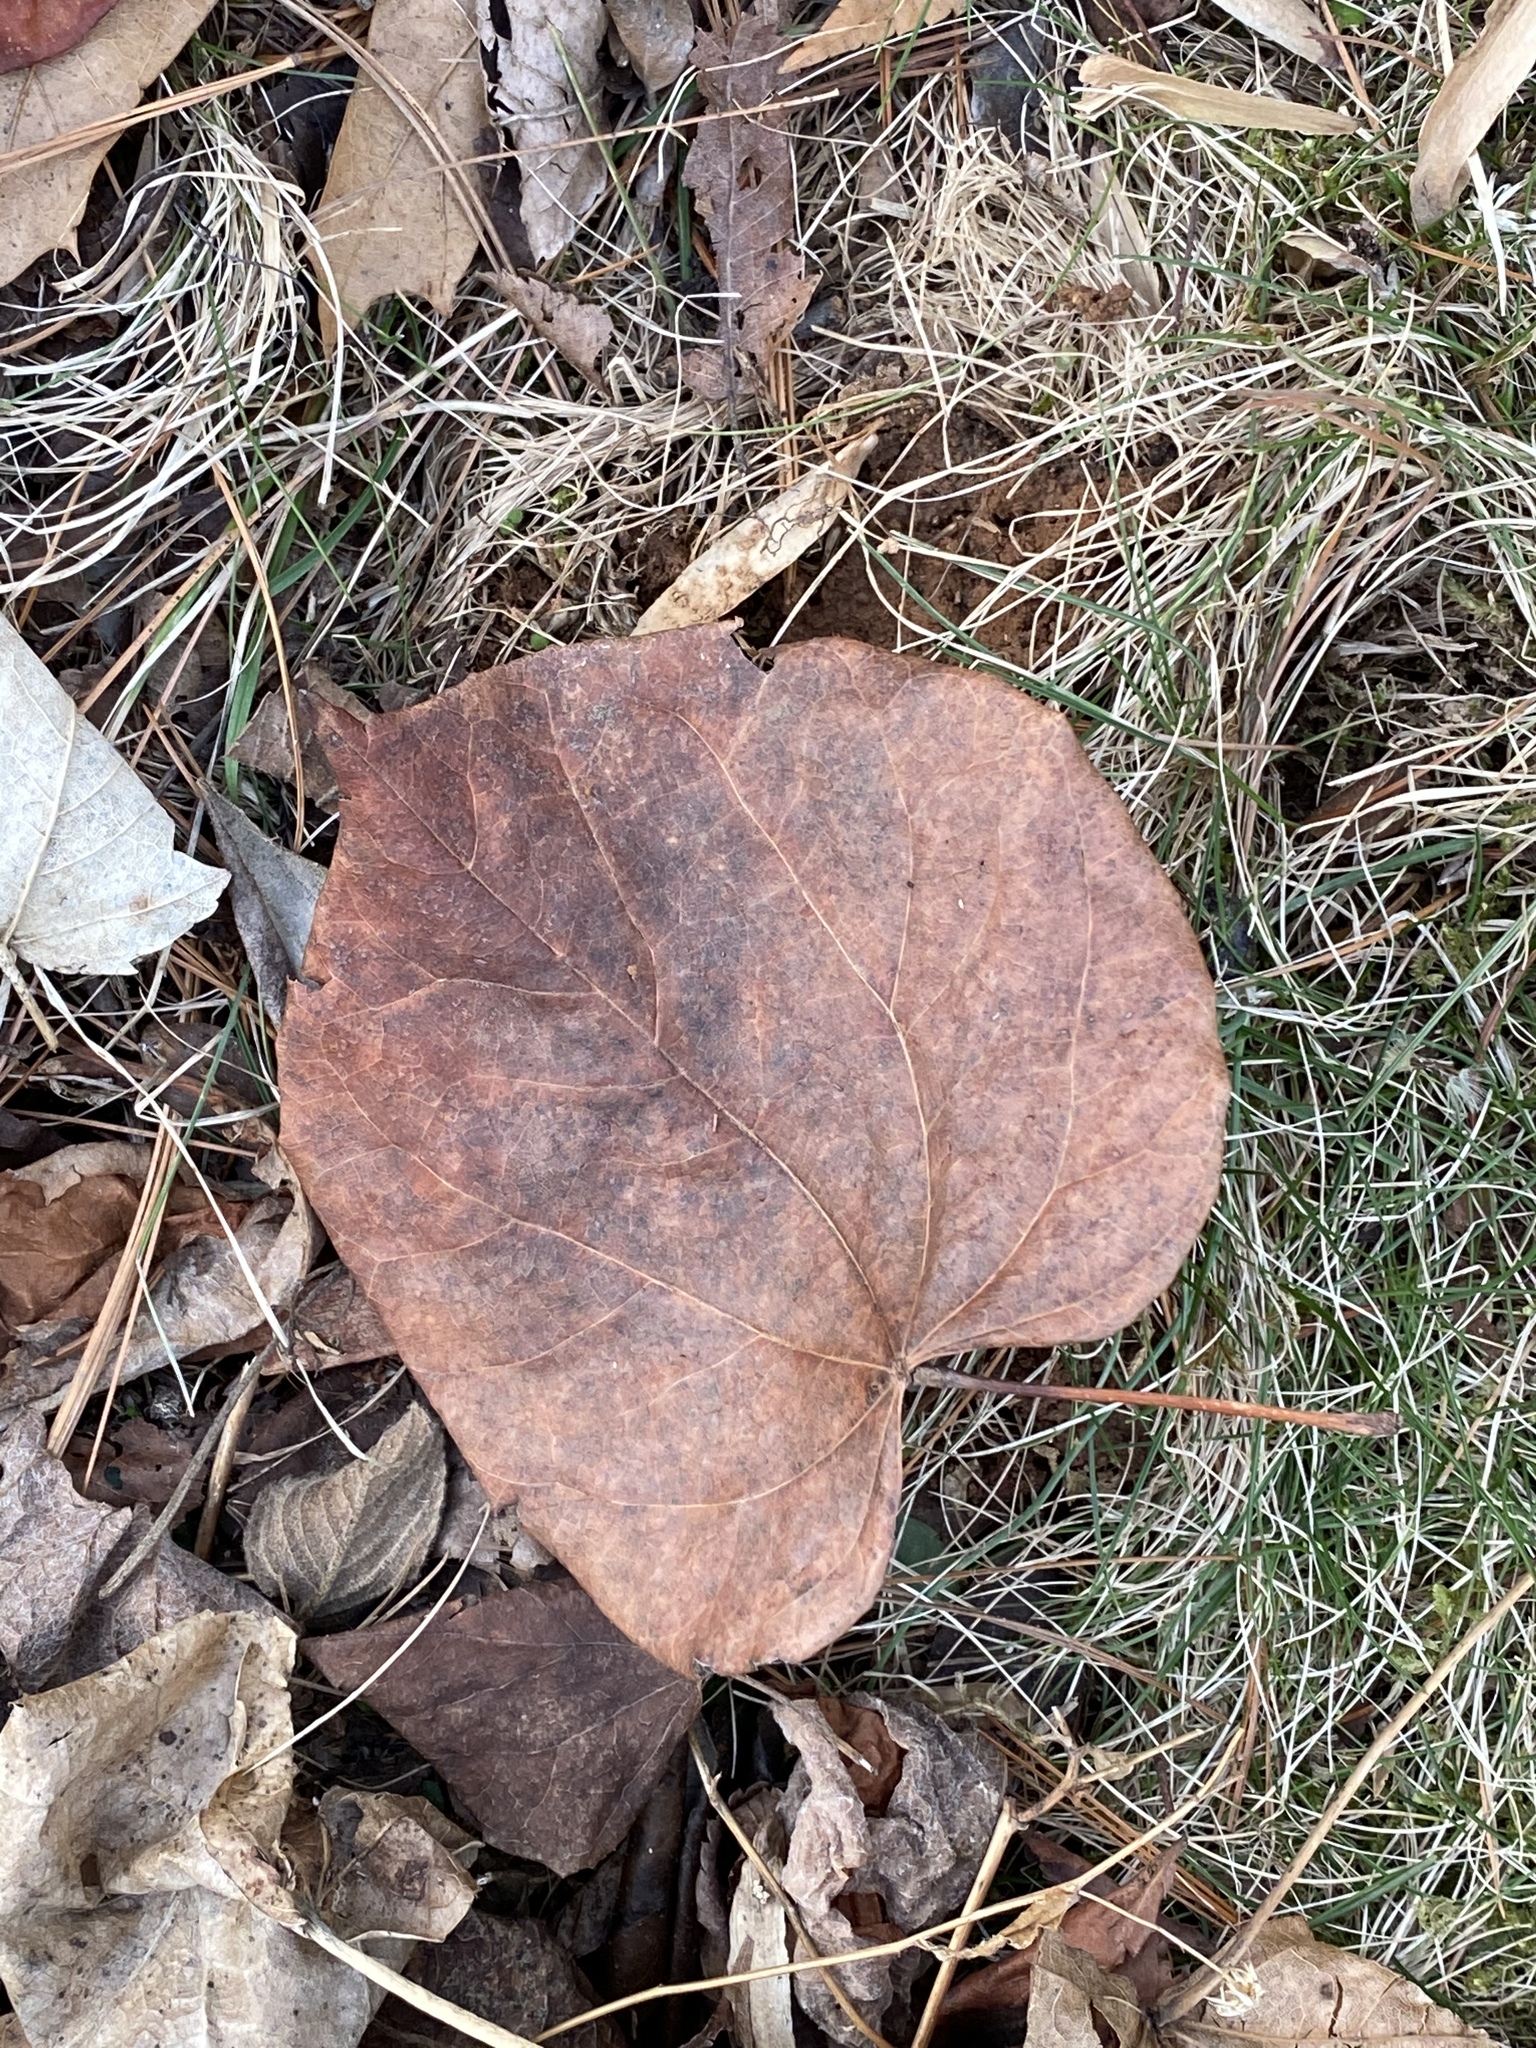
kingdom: Plantae
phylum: Tracheophyta
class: Magnoliopsida
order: Fabales
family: Fabaceae
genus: Cercis
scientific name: Cercis canadensis
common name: Eastern redbud
